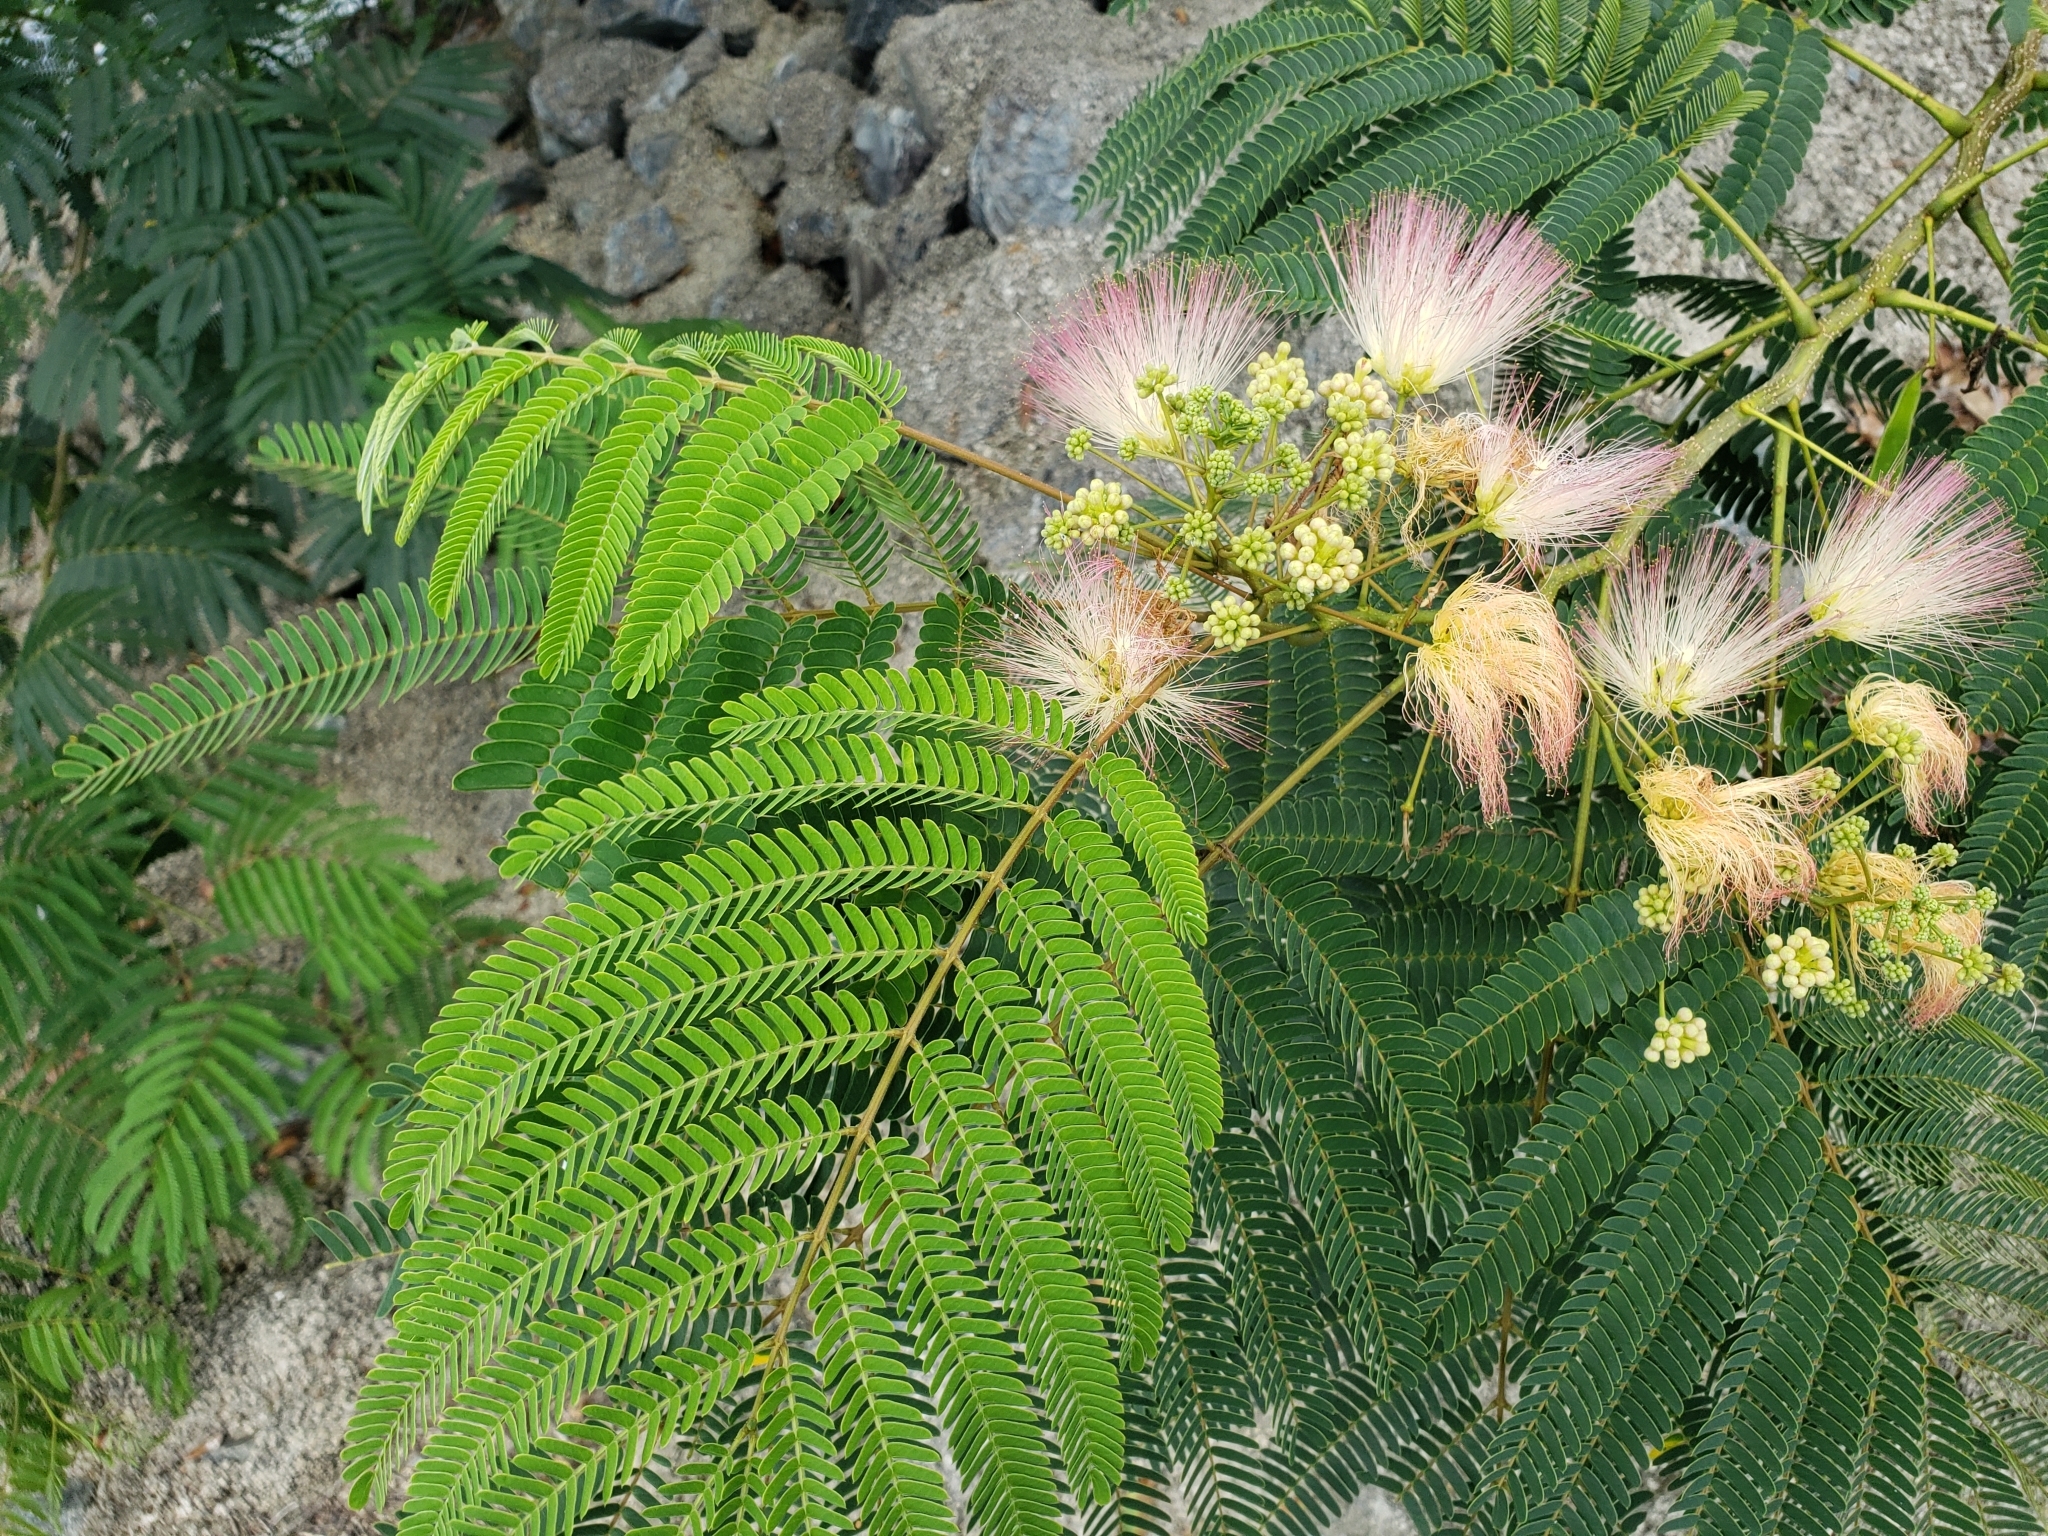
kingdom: Plantae
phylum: Tracheophyta
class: Magnoliopsida
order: Fabales
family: Fabaceae
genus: Albizia
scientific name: Albizia julibrissin
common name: Silktree
